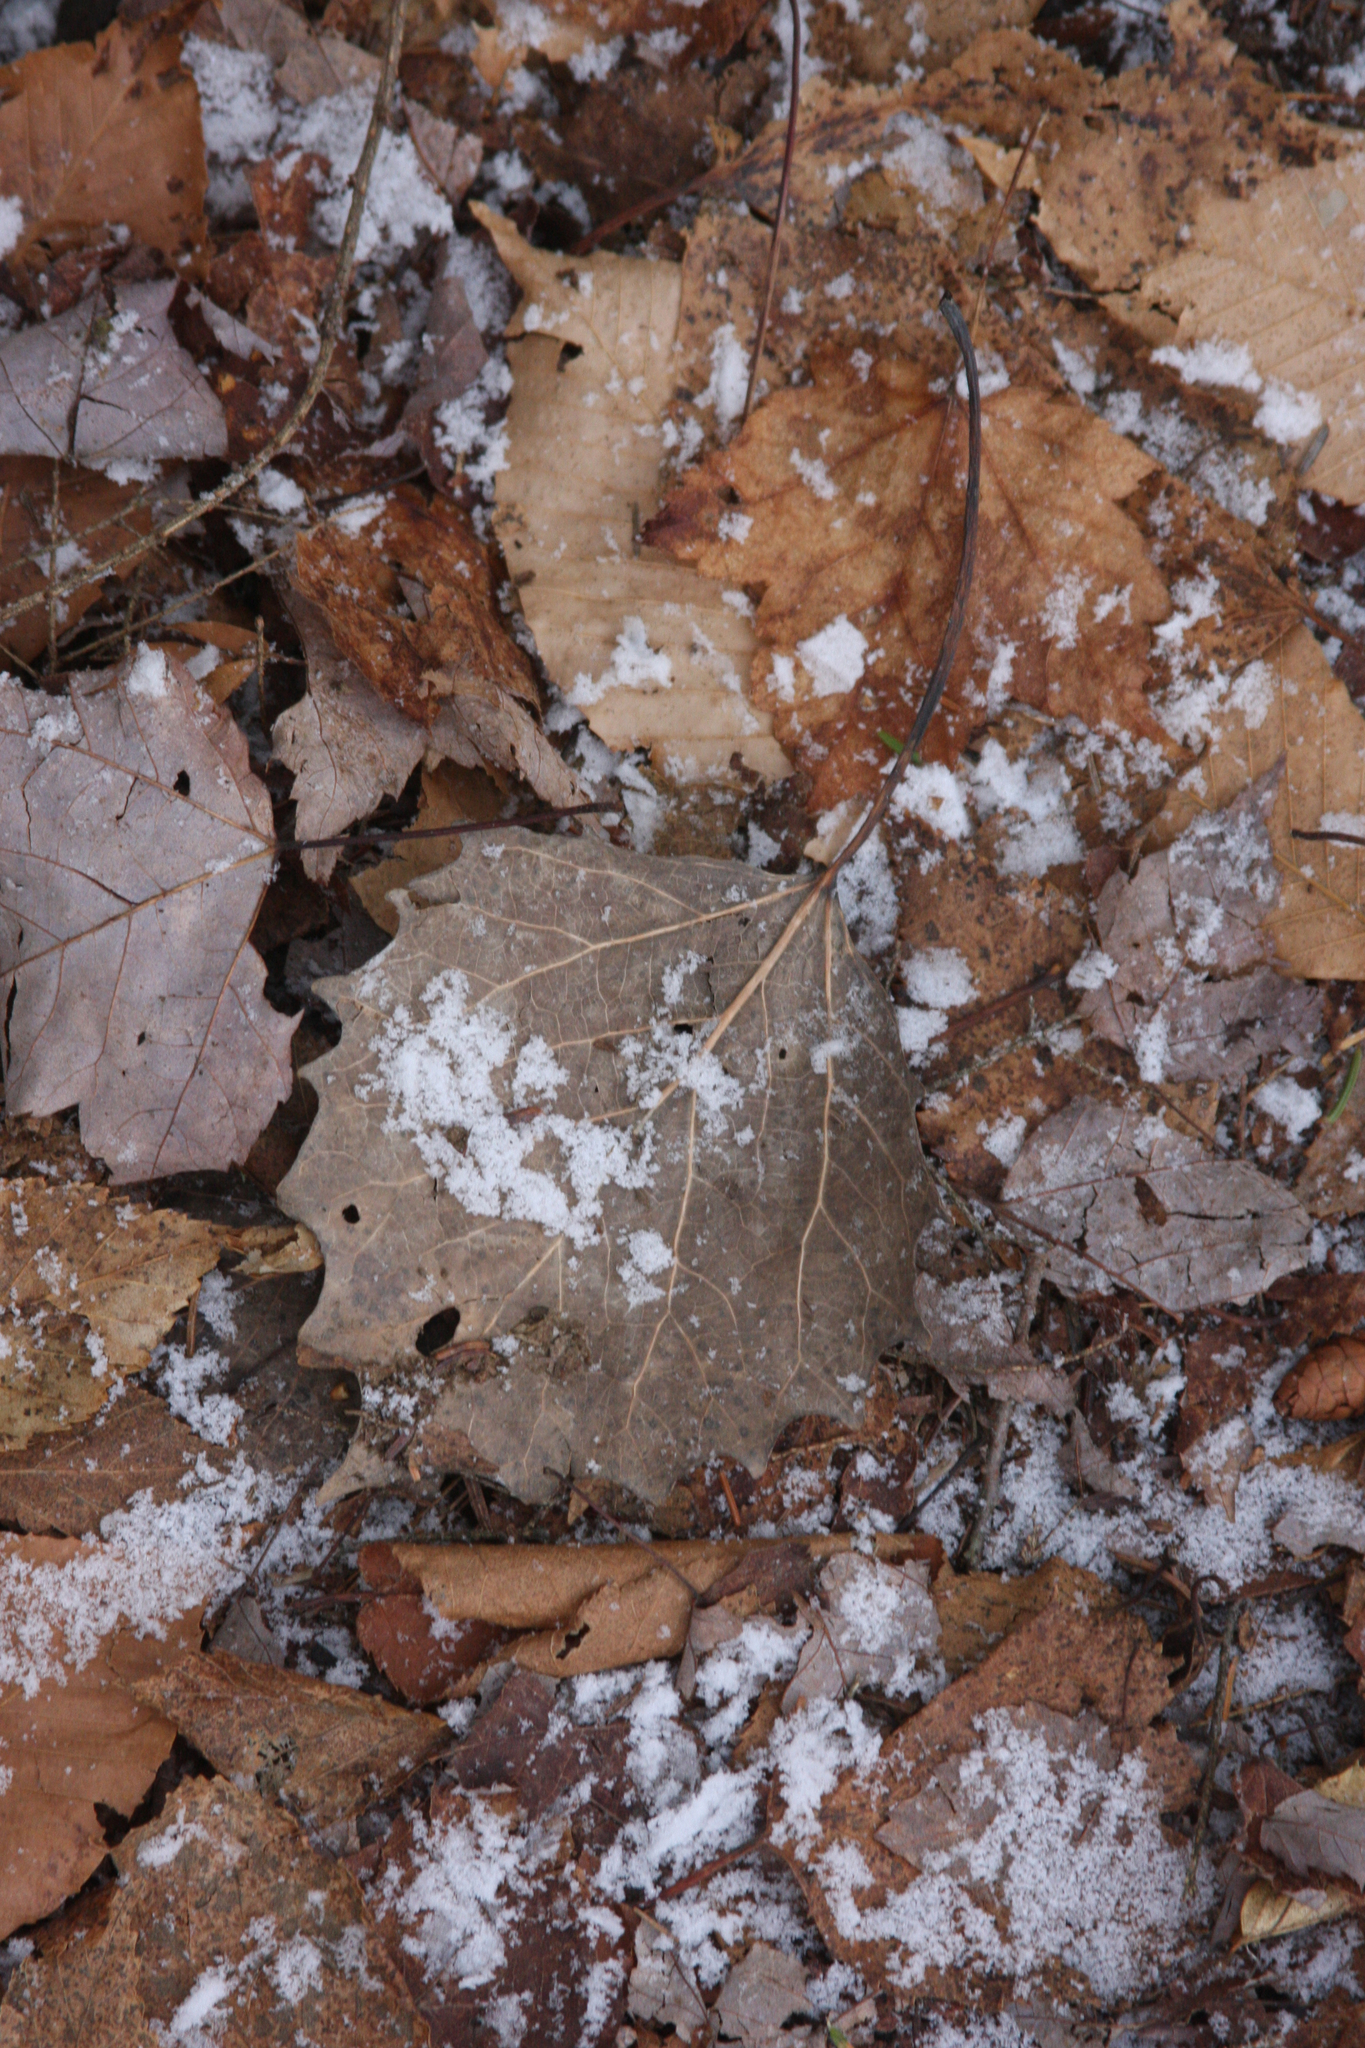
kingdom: Plantae
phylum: Tracheophyta
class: Magnoliopsida
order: Malpighiales
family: Salicaceae
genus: Populus
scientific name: Populus grandidentata
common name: Bigtooth aspen
